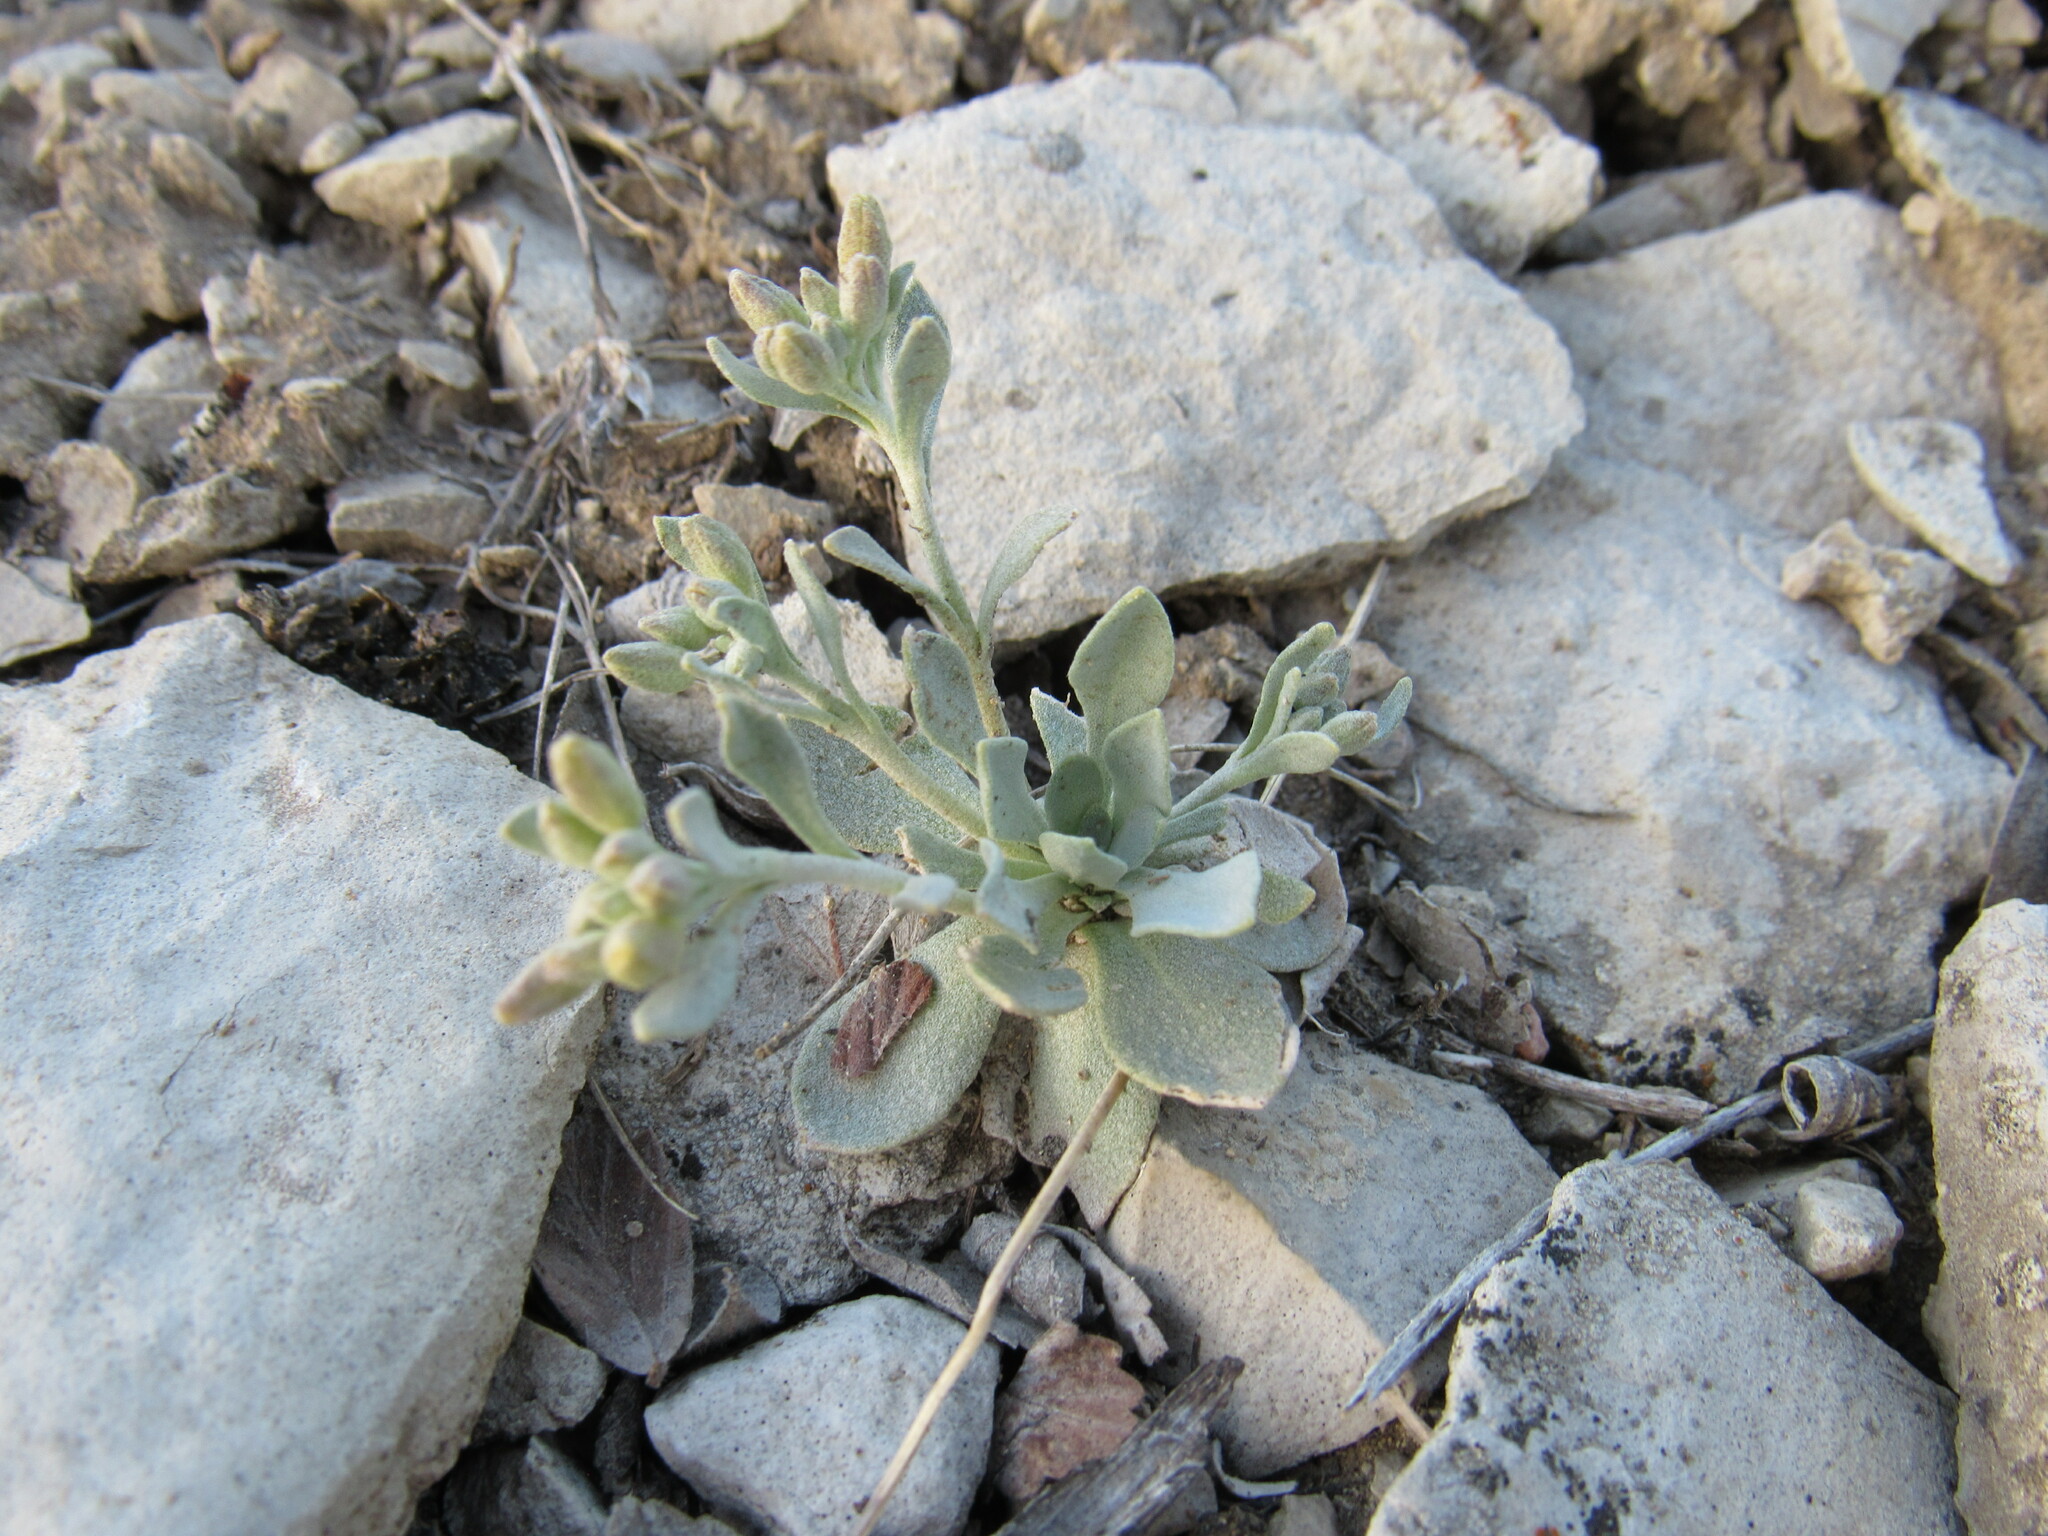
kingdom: Plantae
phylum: Tracheophyta
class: Magnoliopsida
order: Brassicales
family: Brassicaceae
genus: Physaria
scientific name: Physaria bellii
